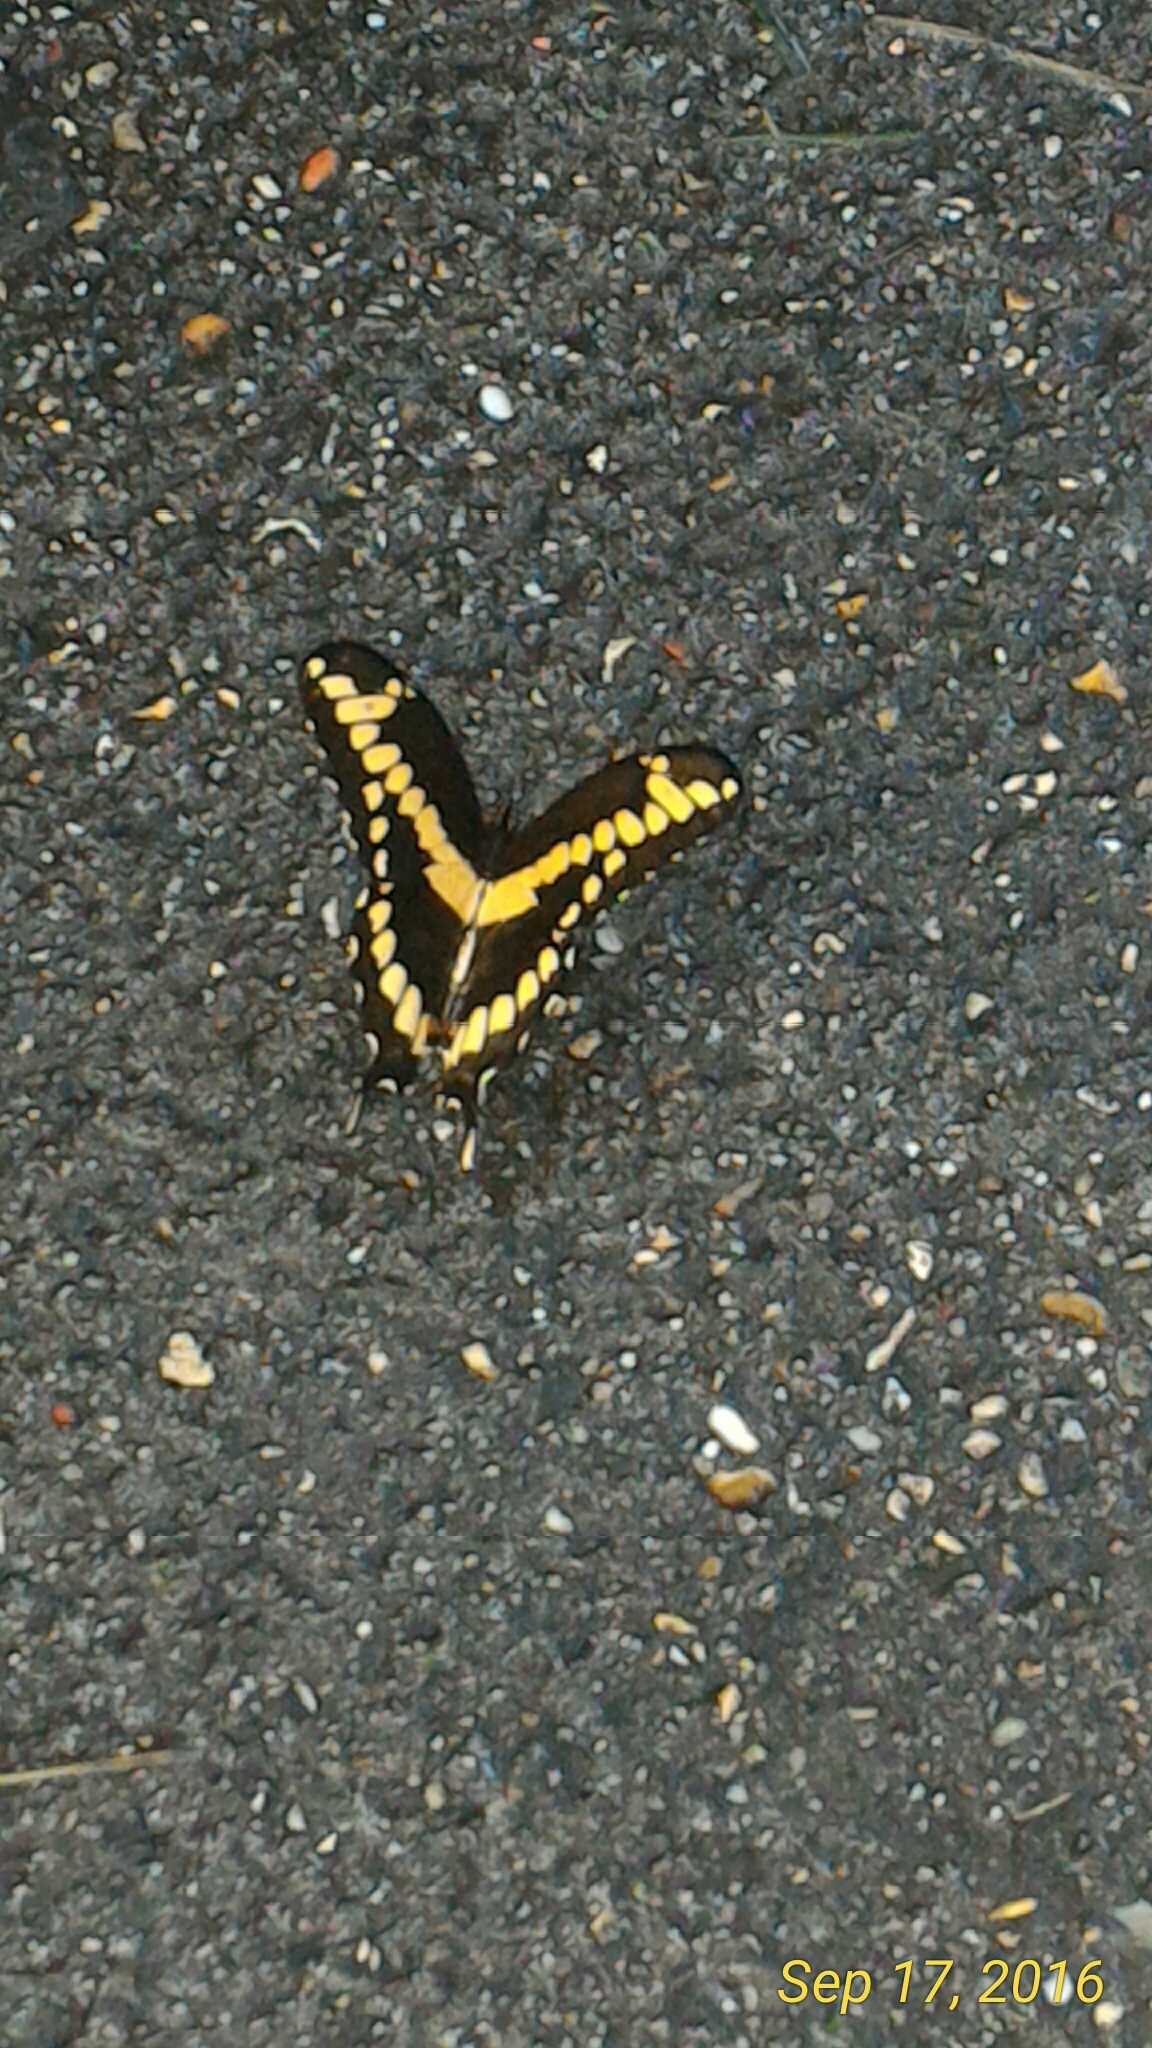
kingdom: Animalia
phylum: Arthropoda
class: Insecta
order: Lepidoptera
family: Papilionidae
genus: Papilio
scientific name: Papilio cresphontes
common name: Giant swallowtail
